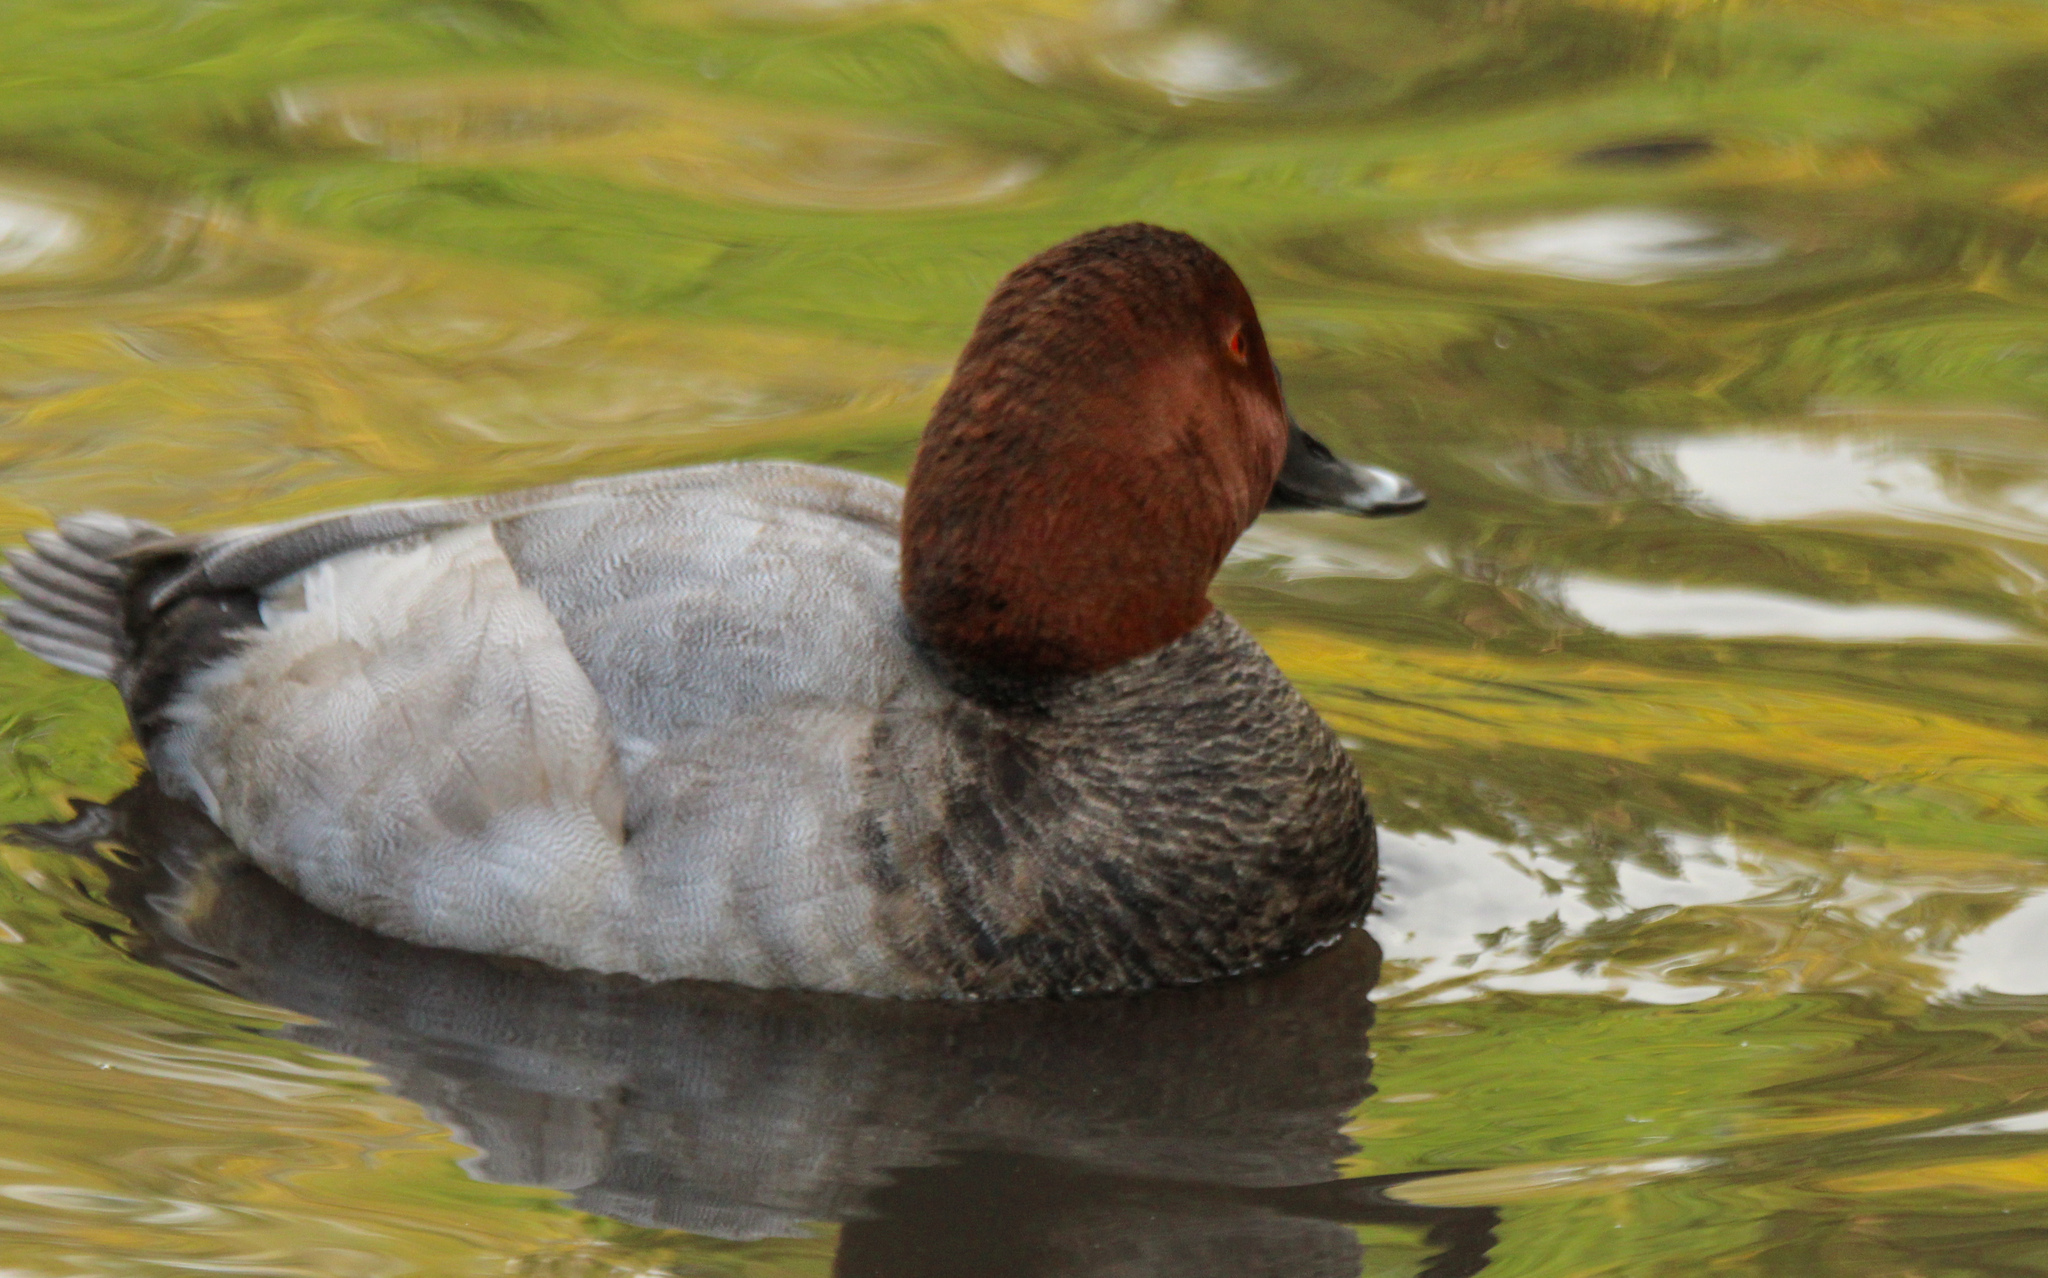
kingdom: Animalia
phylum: Chordata
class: Aves
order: Anseriformes
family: Anatidae
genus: Aythya
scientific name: Aythya ferina
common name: Common pochard
